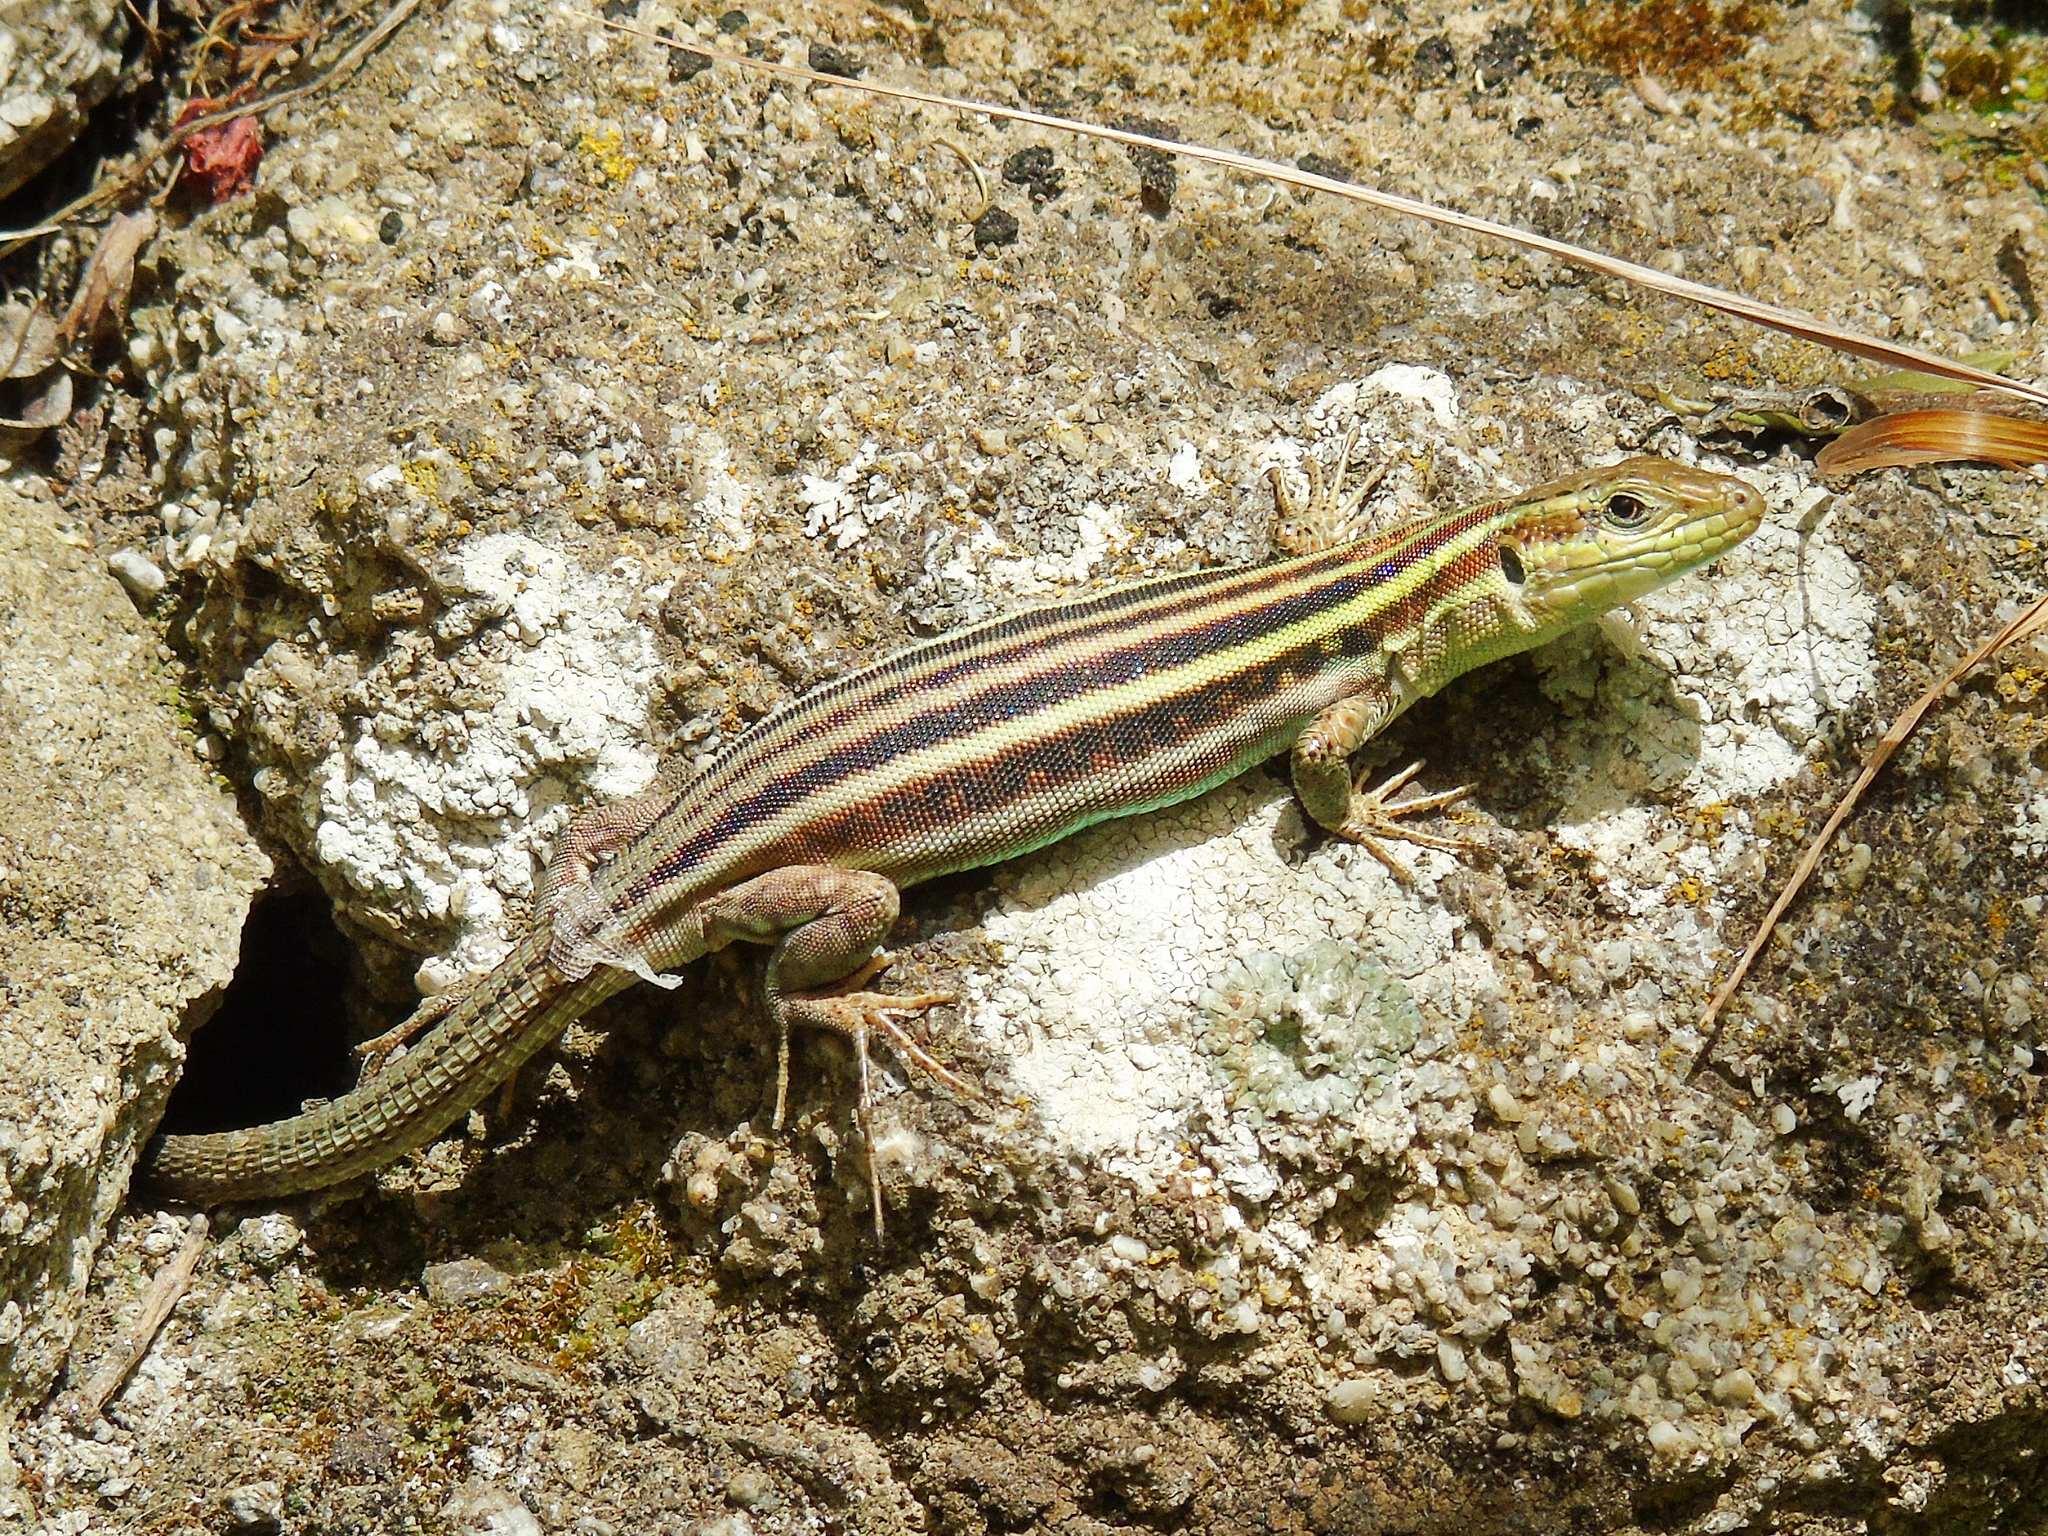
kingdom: Animalia
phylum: Chordata
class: Squamata
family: Lacertidae
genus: Podarcis
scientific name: Podarcis peloponnesiacus
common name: Peloponnese wall lizard
